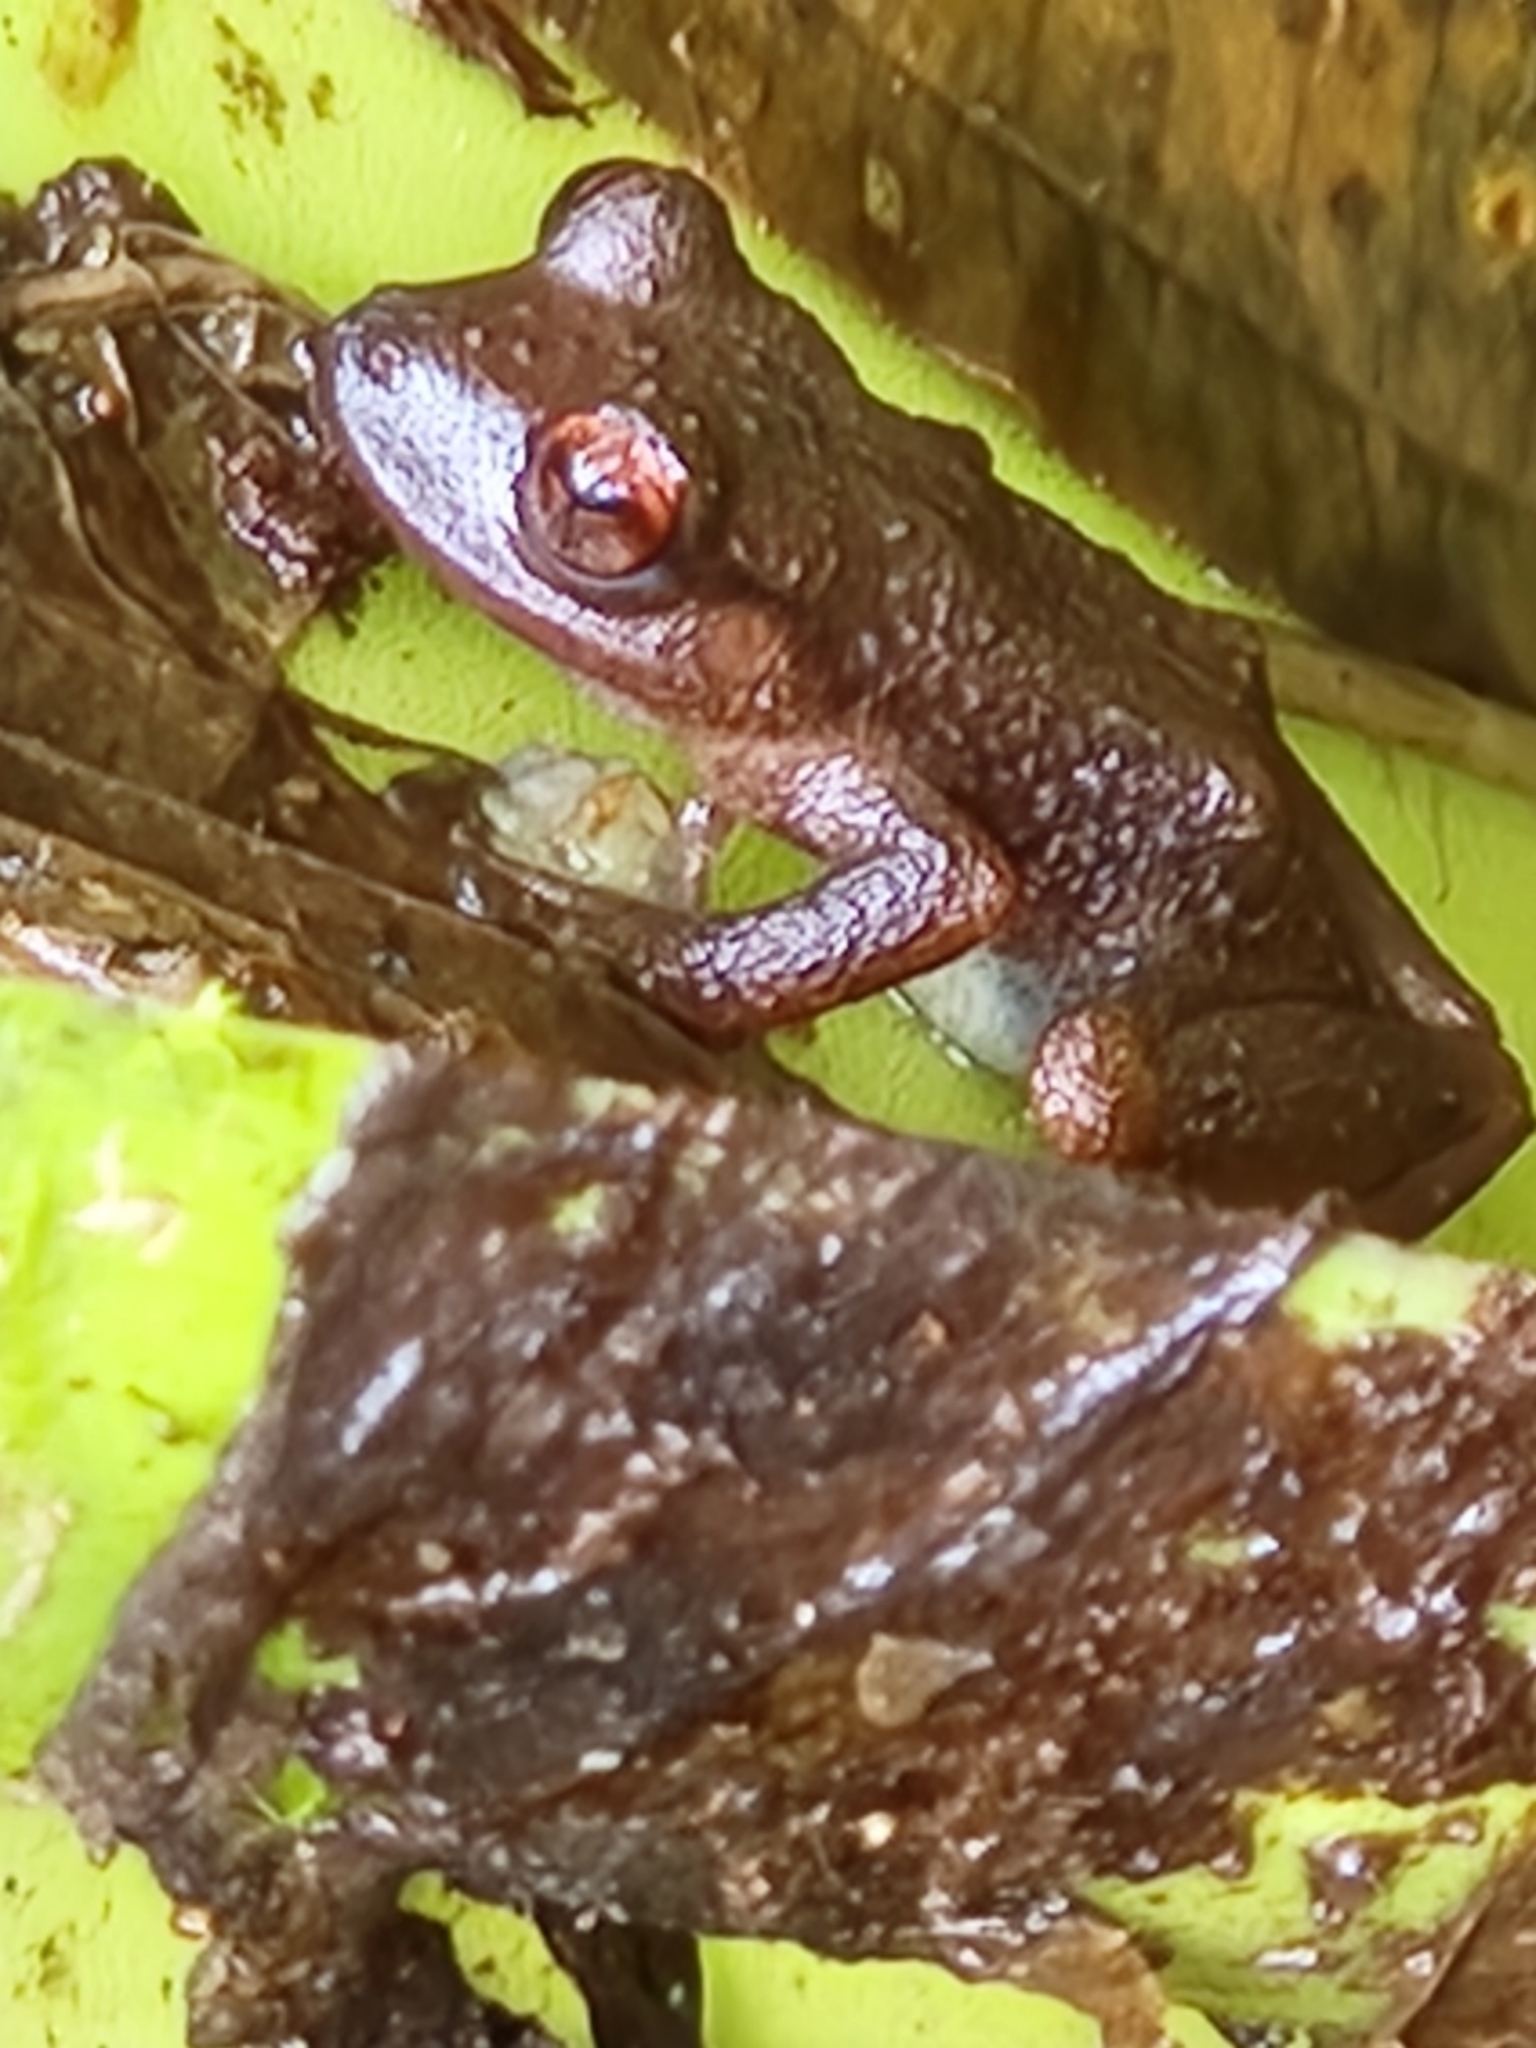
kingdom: Animalia
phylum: Chordata
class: Amphibia
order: Anura
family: Craugastoridae
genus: Tachiramantis
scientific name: Tachiramantis
